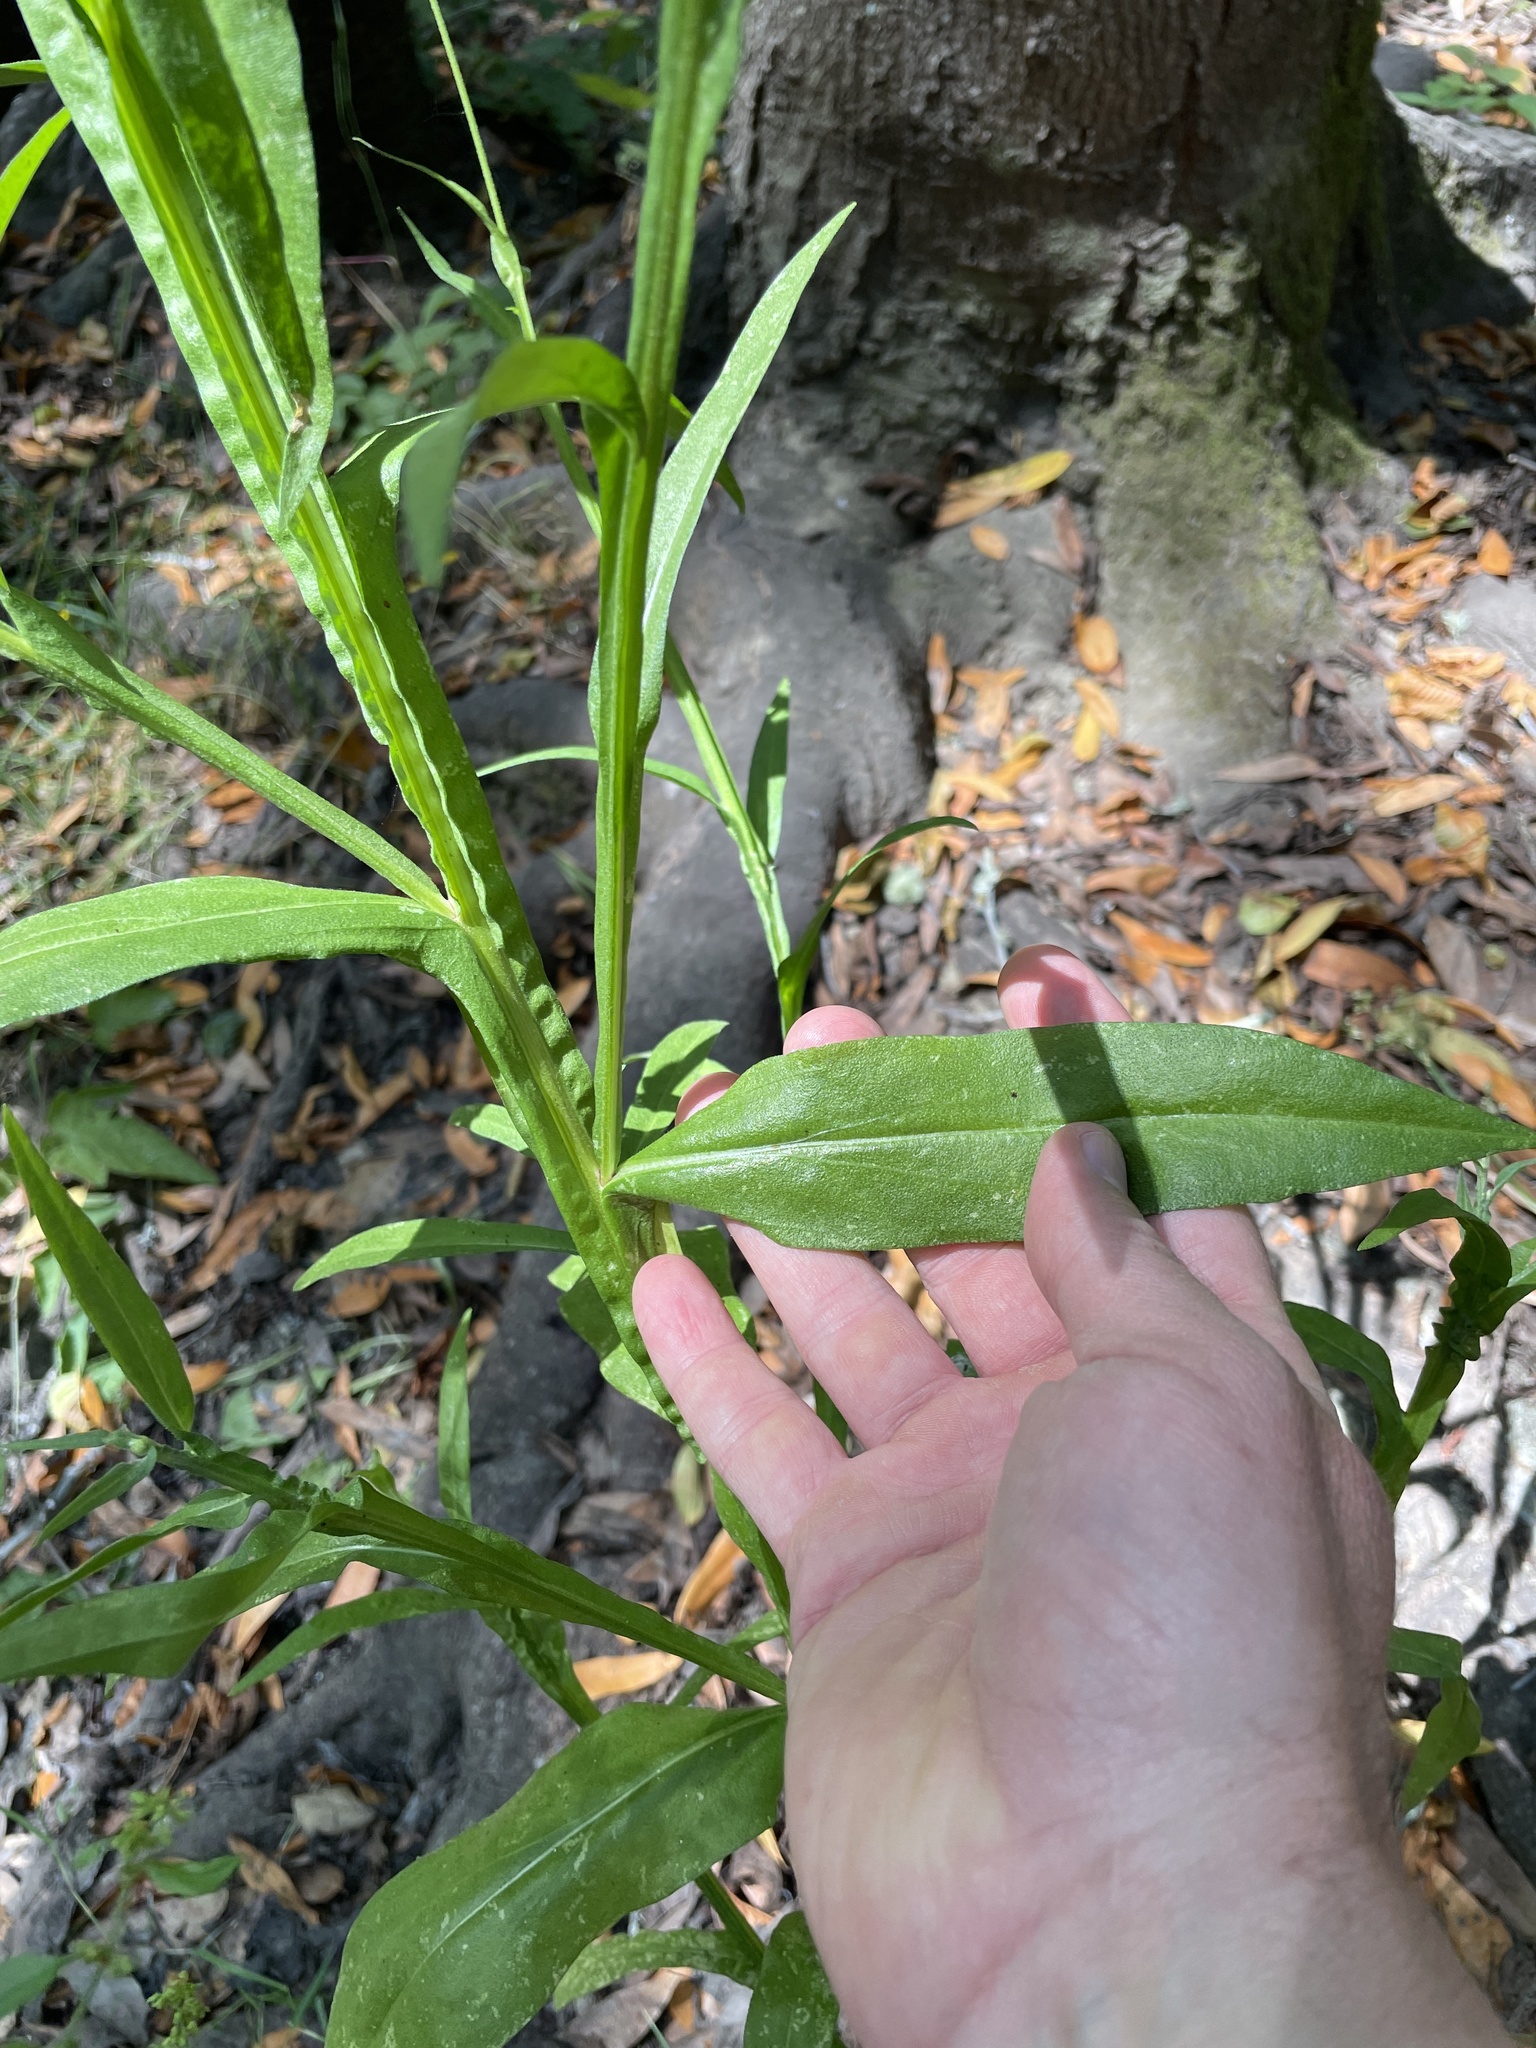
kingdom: Plantae
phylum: Tracheophyta
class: Magnoliopsida
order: Asterales
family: Asteraceae
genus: Helenium
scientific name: Helenium puberulum
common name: Sneezewort
